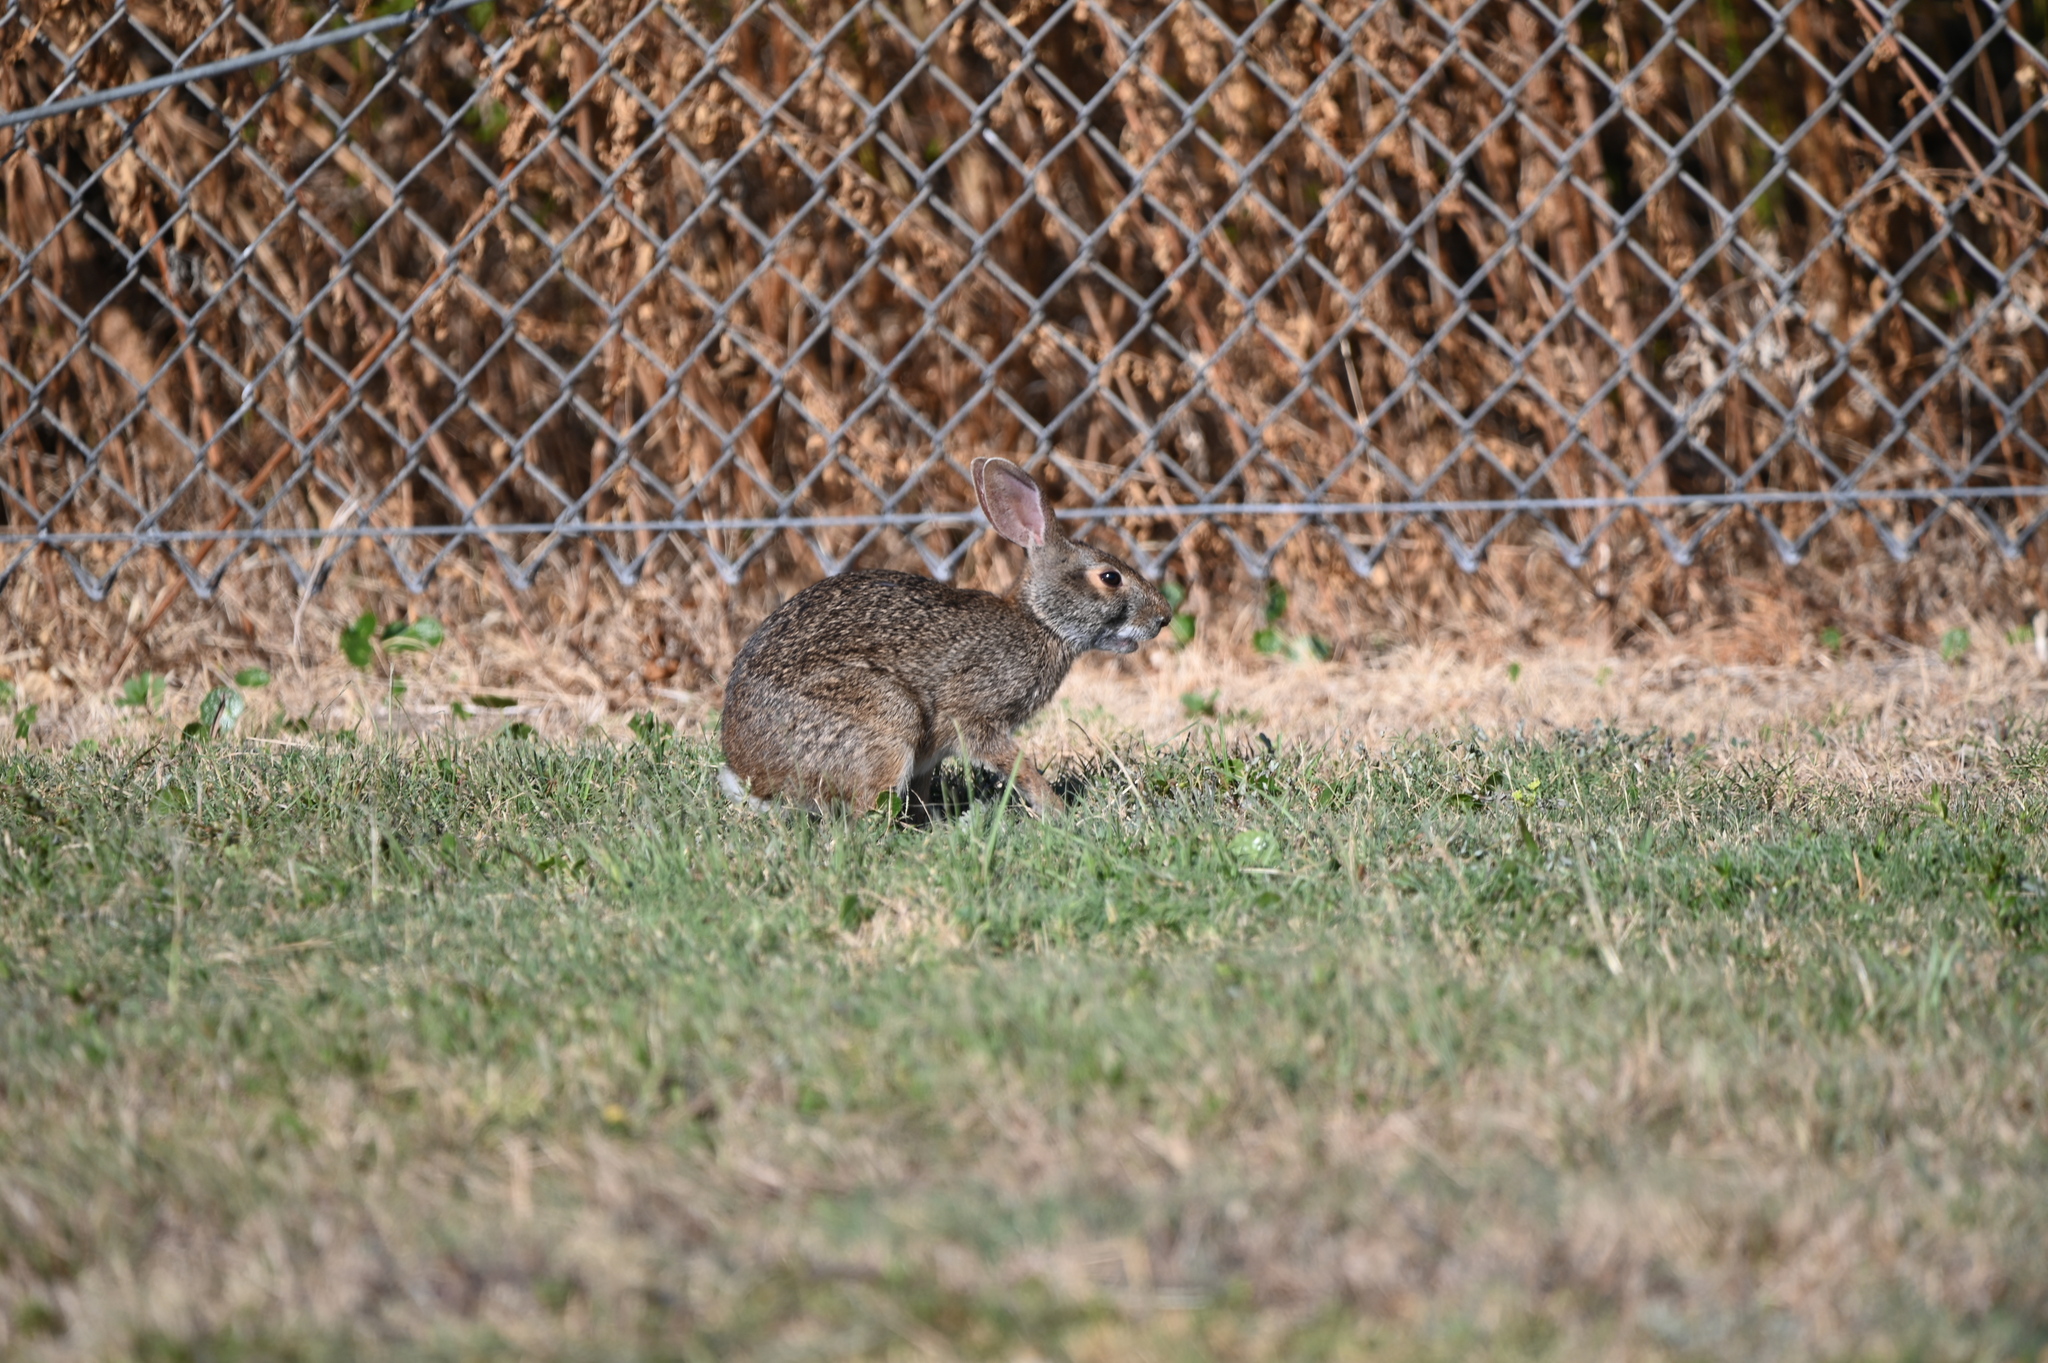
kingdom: Animalia
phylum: Chordata
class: Mammalia
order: Lagomorpha
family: Leporidae
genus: Sylvilagus
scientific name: Sylvilagus aquaticus
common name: Swamp rabbit
